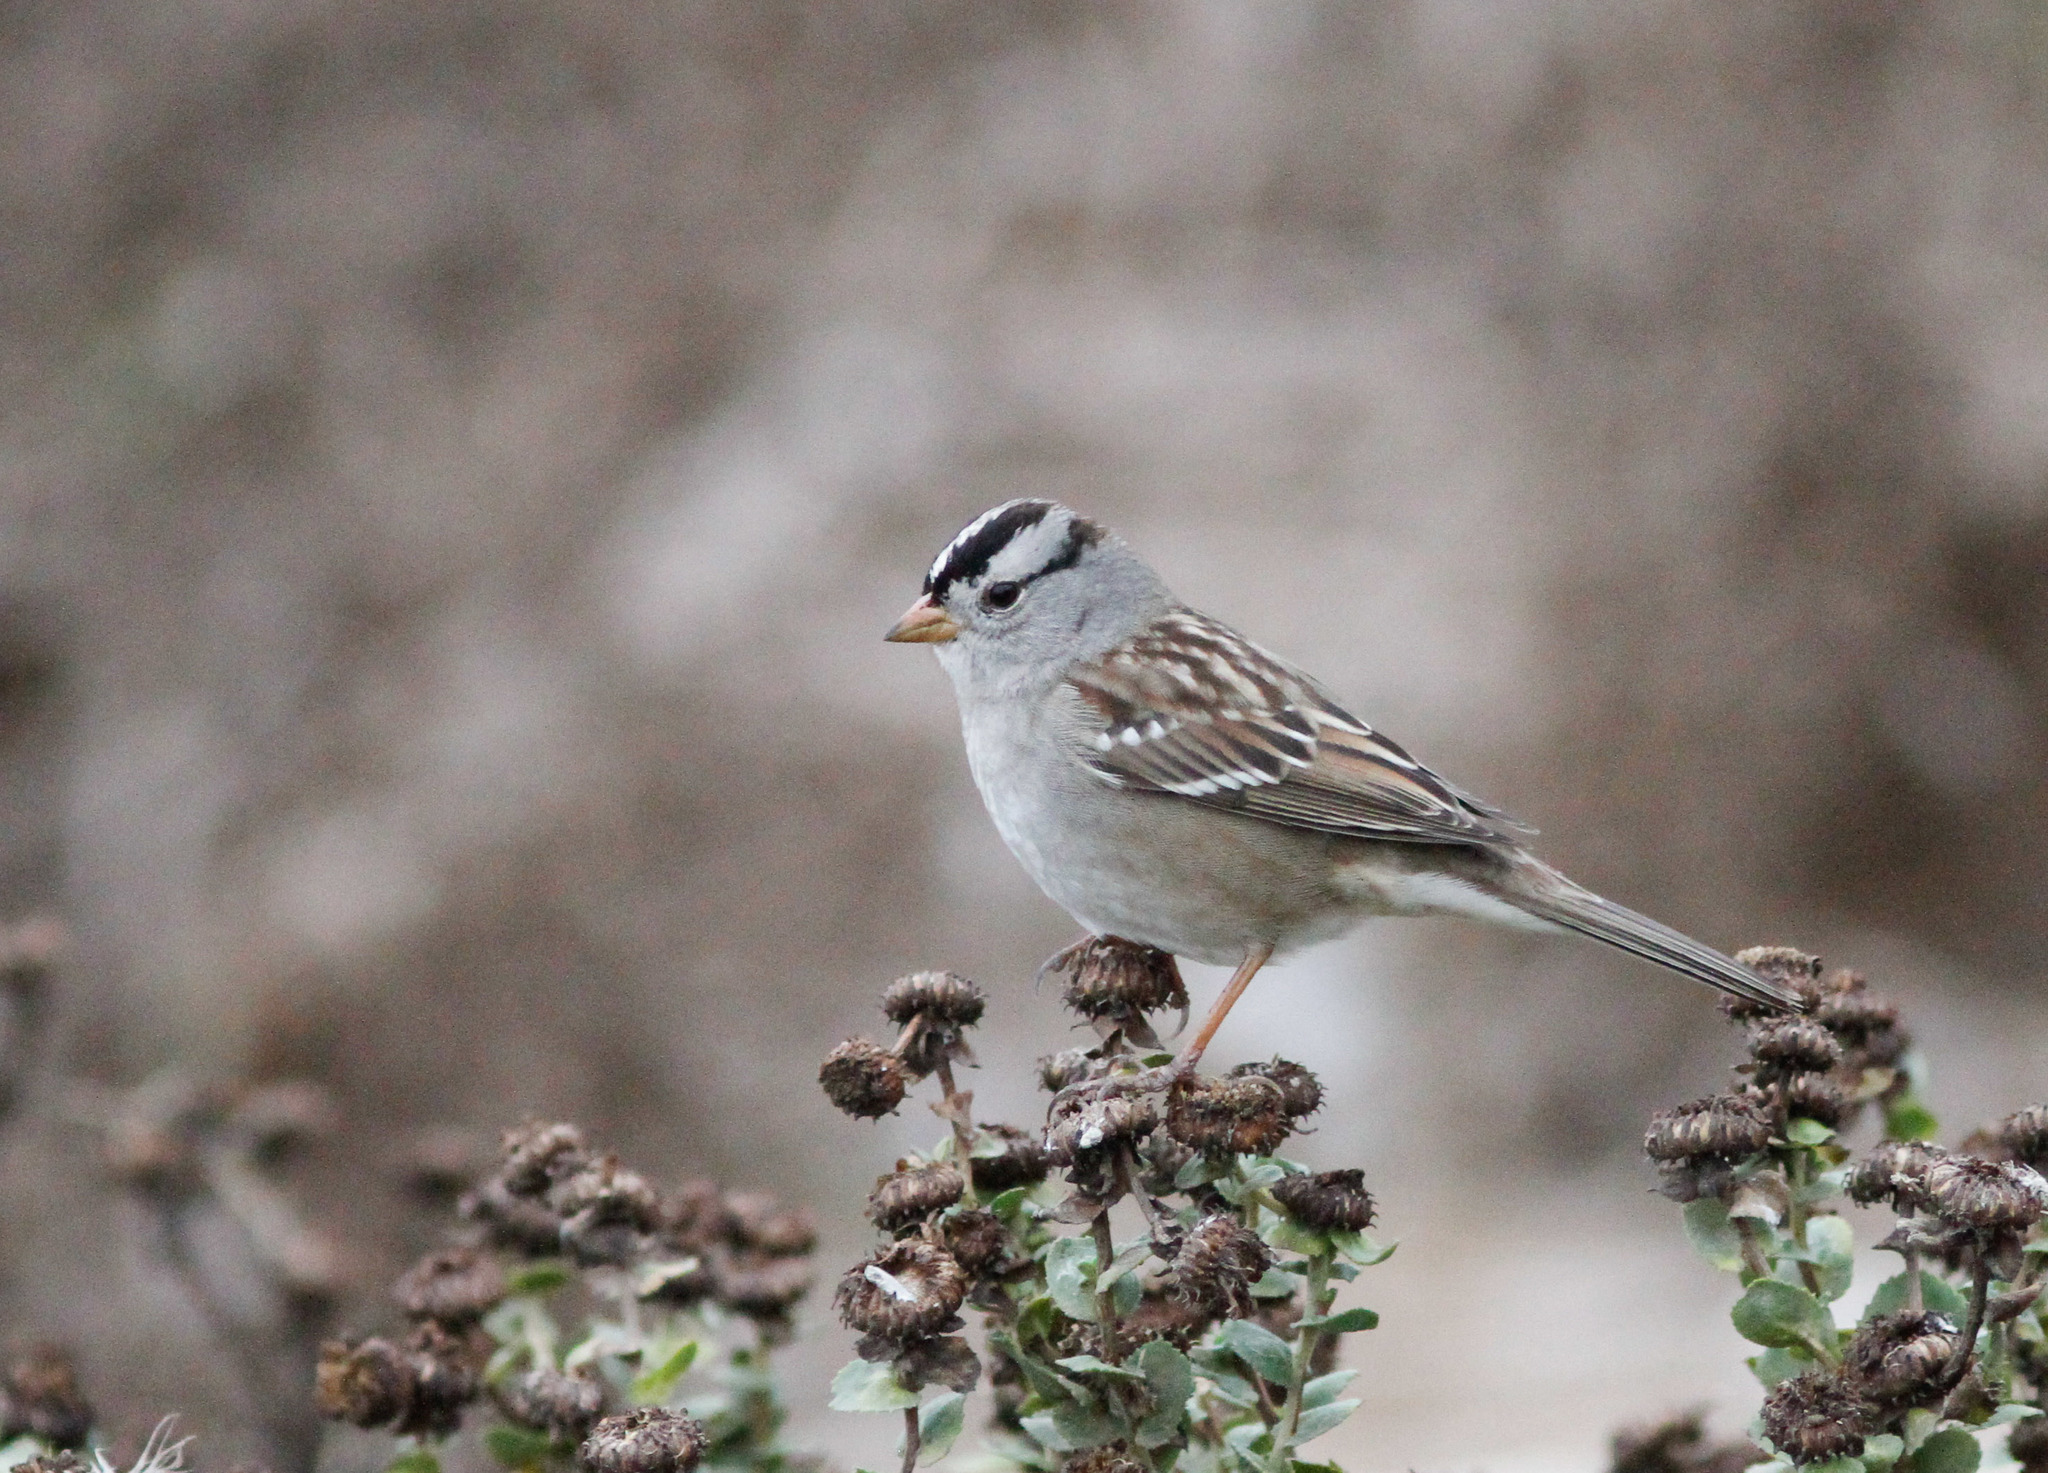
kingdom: Animalia
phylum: Chordata
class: Aves
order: Passeriformes
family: Passerellidae
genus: Zonotrichia
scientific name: Zonotrichia leucophrys
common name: White-crowned sparrow
